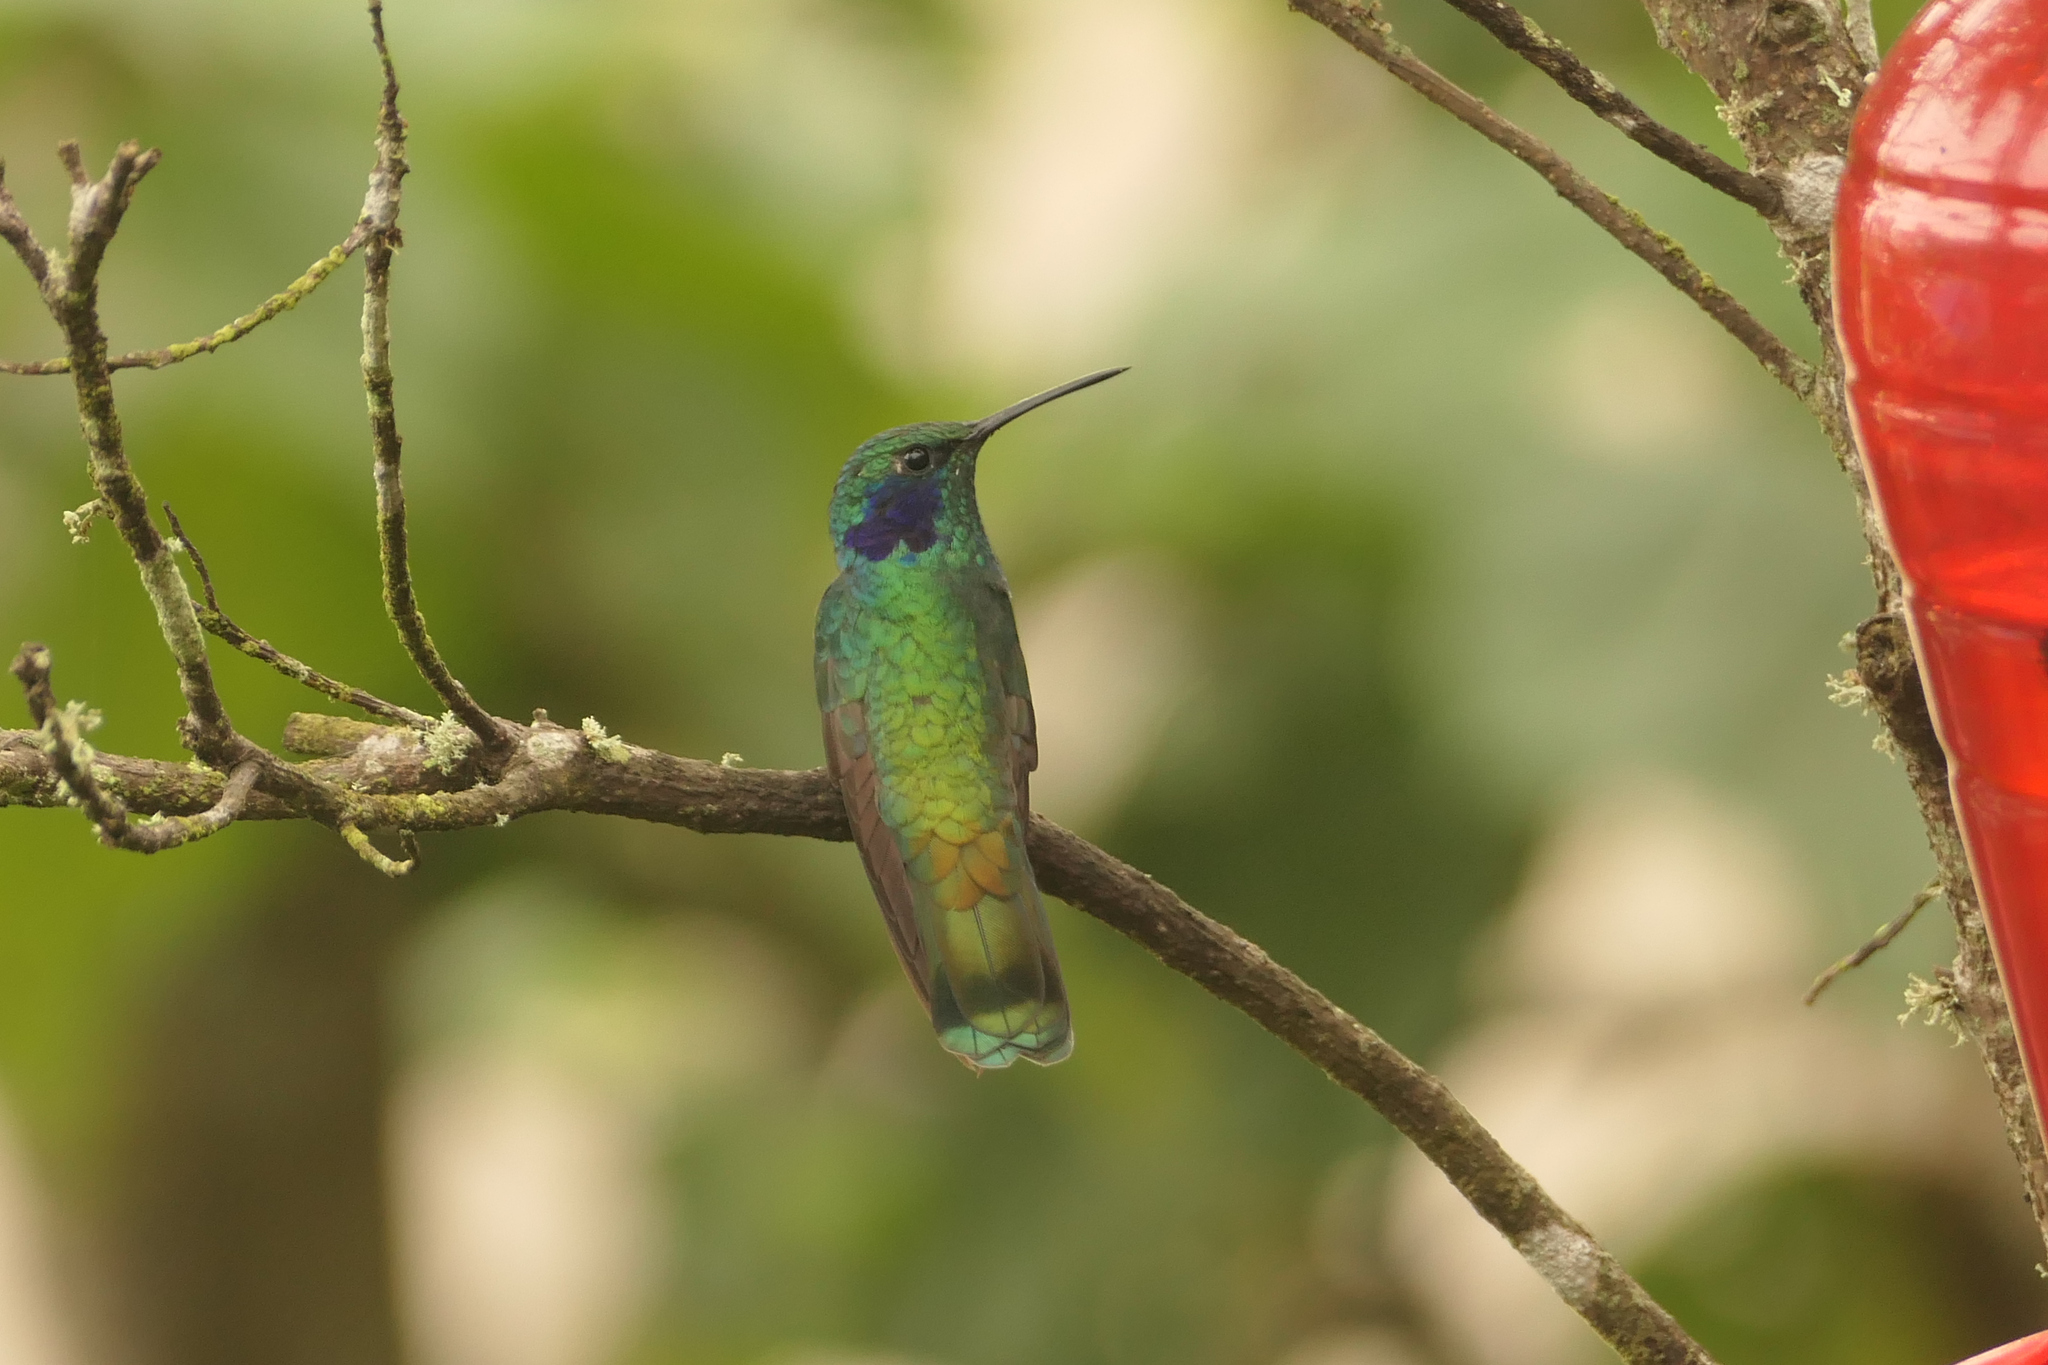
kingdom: Animalia
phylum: Chordata
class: Aves
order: Apodiformes
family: Trochilidae
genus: Colibri
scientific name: Colibri cyanotus
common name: Lesser violetear
